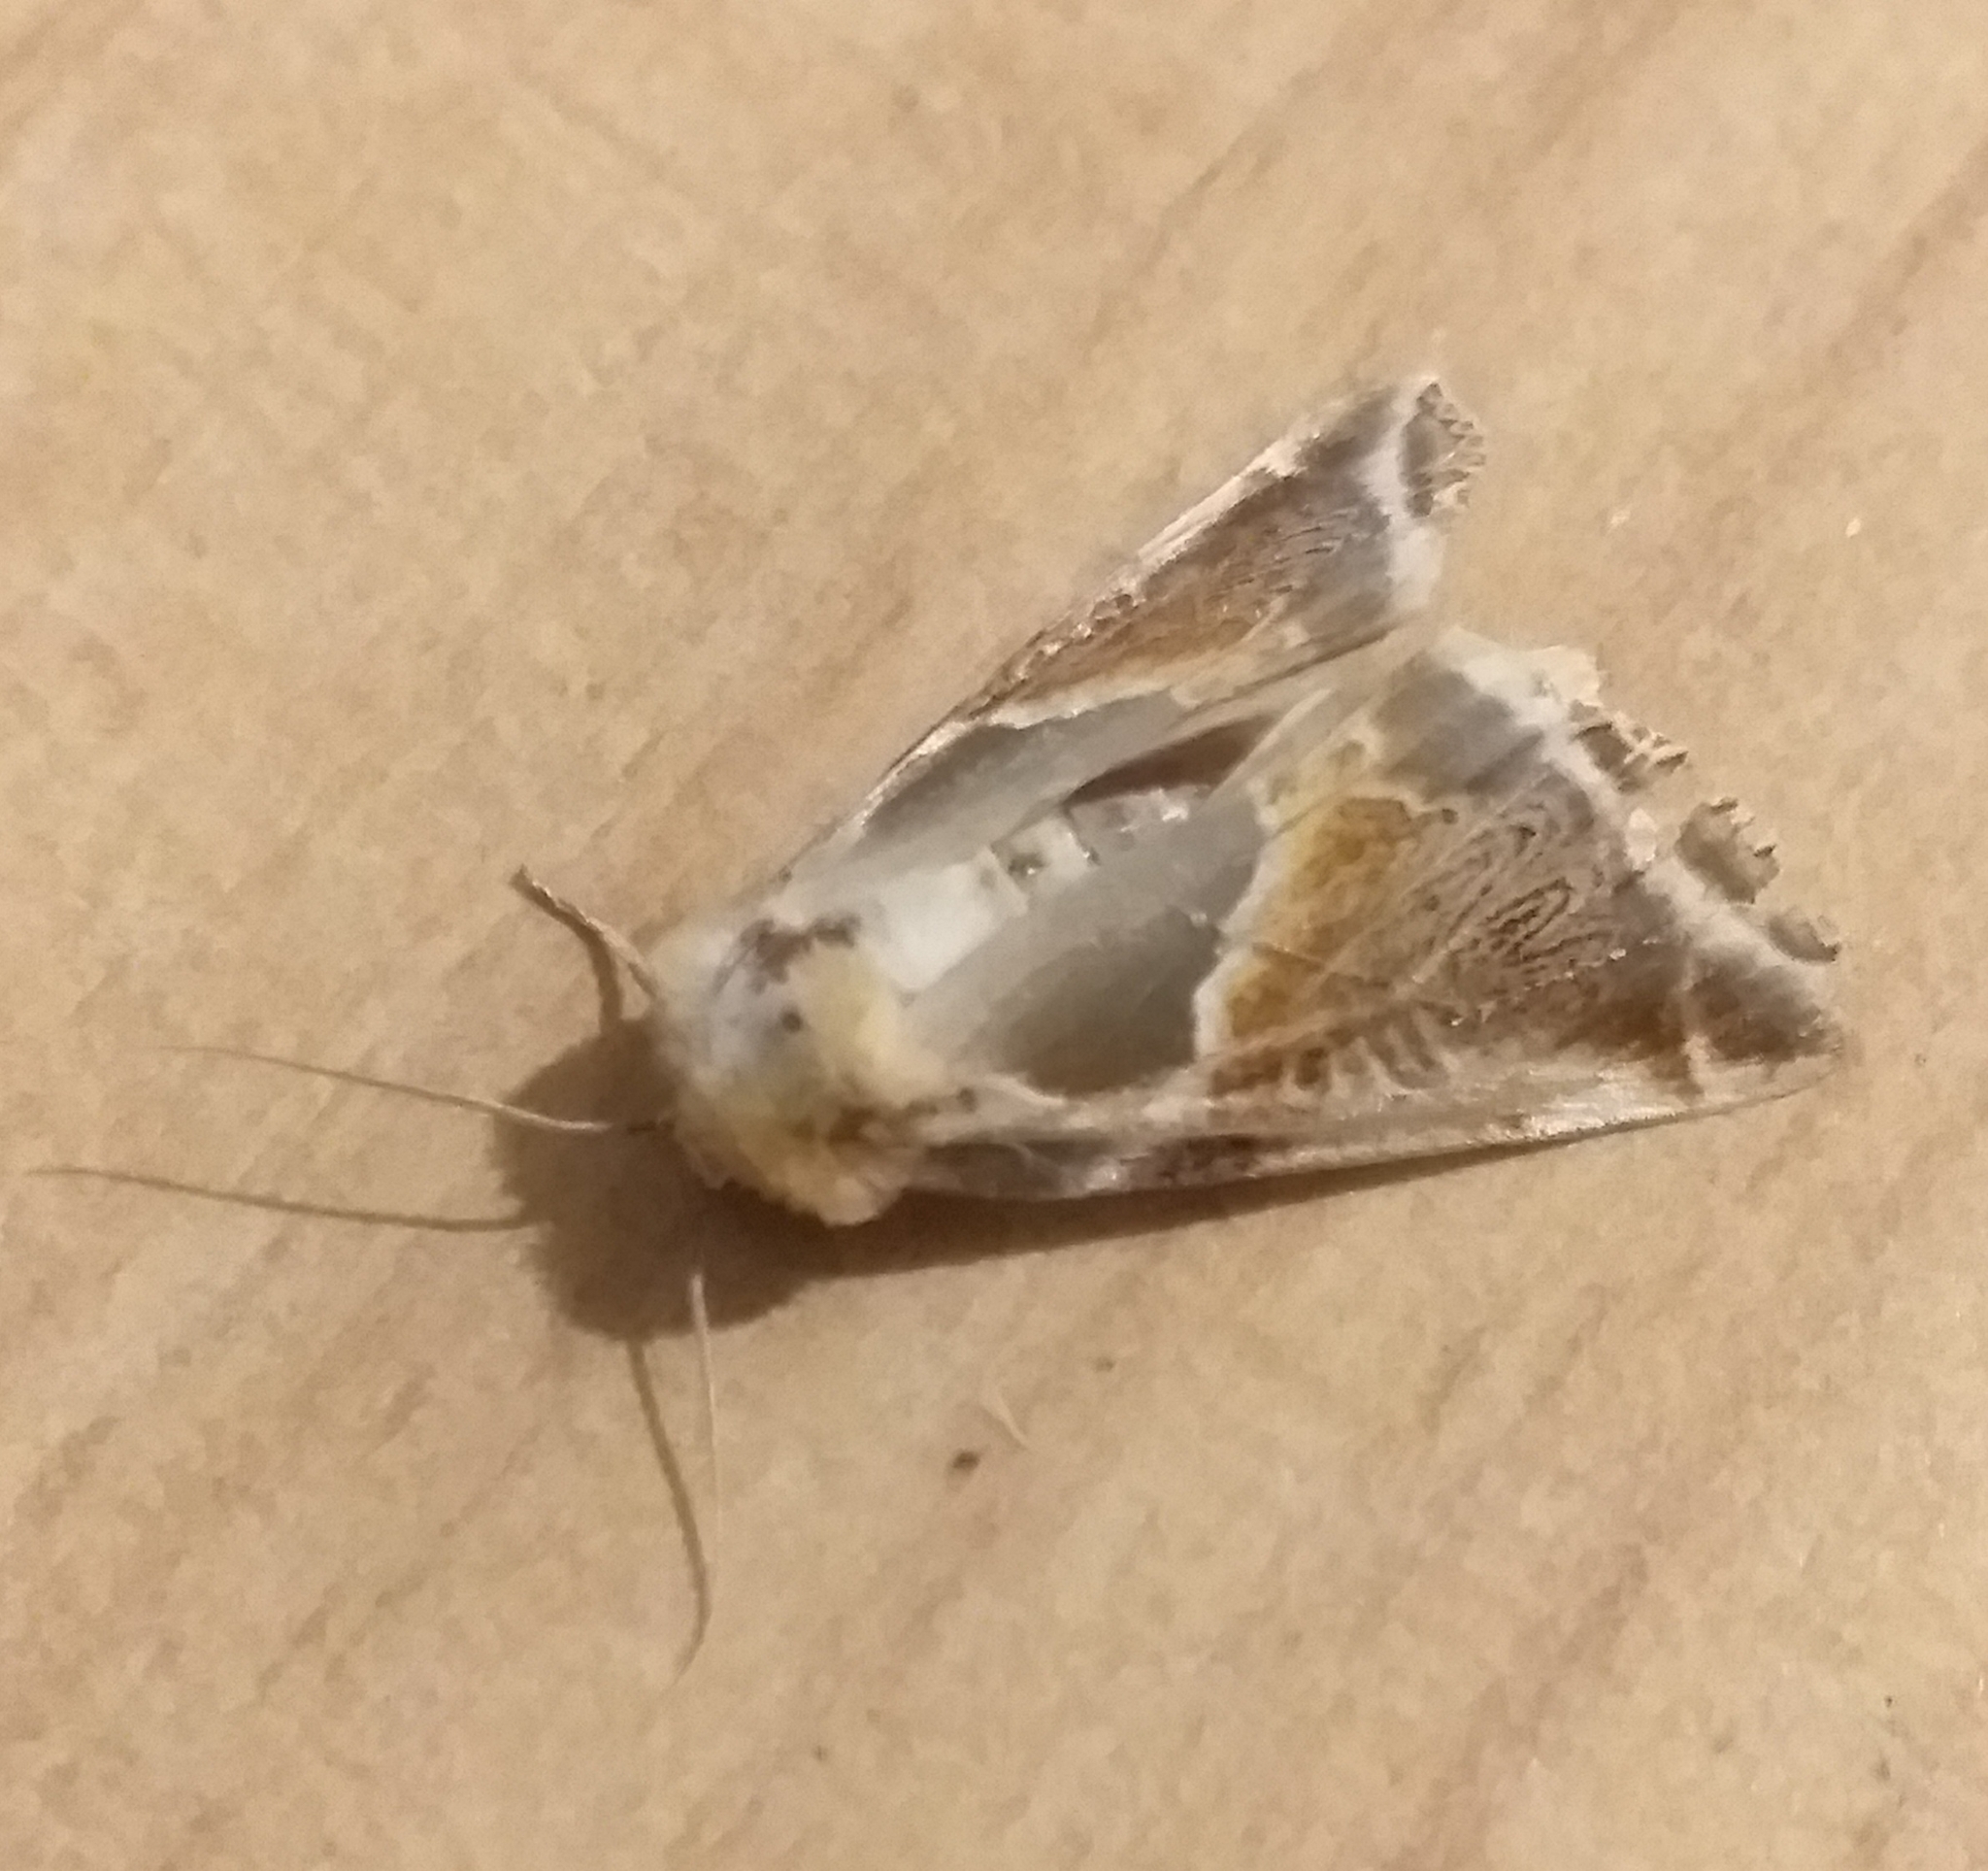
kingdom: Animalia
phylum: Arthropoda
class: Insecta
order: Lepidoptera
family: Drepanidae
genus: Habrosyne
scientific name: Habrosyne pyritoides
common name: Buff arches
